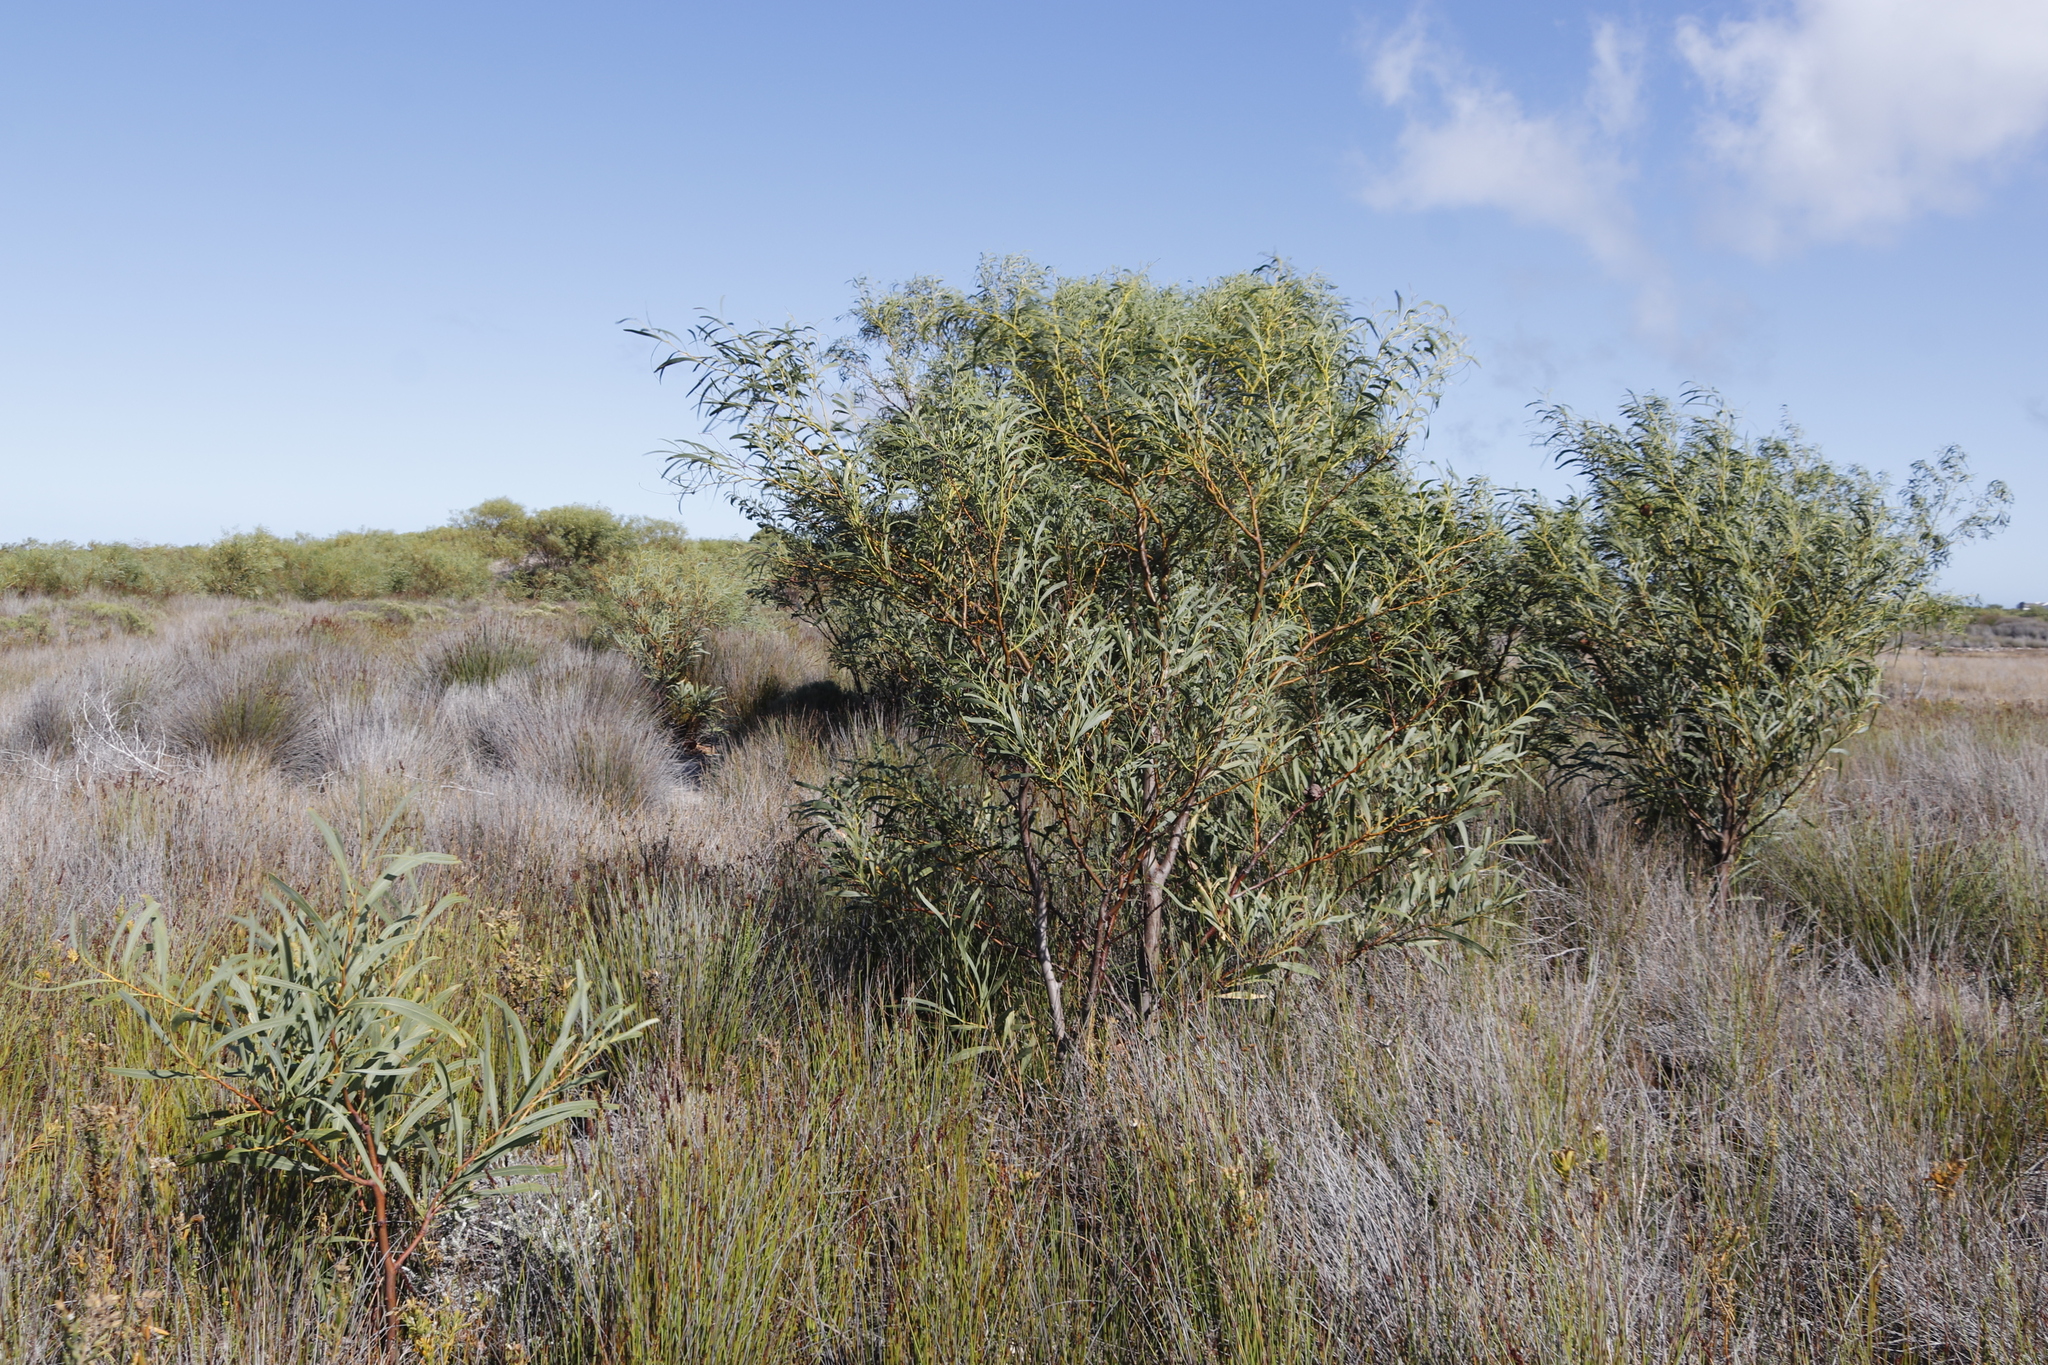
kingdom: Plantae
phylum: Tracheophyta
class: Magnoliopsida
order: Fabales
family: Fabaceae
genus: Acacia
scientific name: Acacia saligna
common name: Orange wattle
